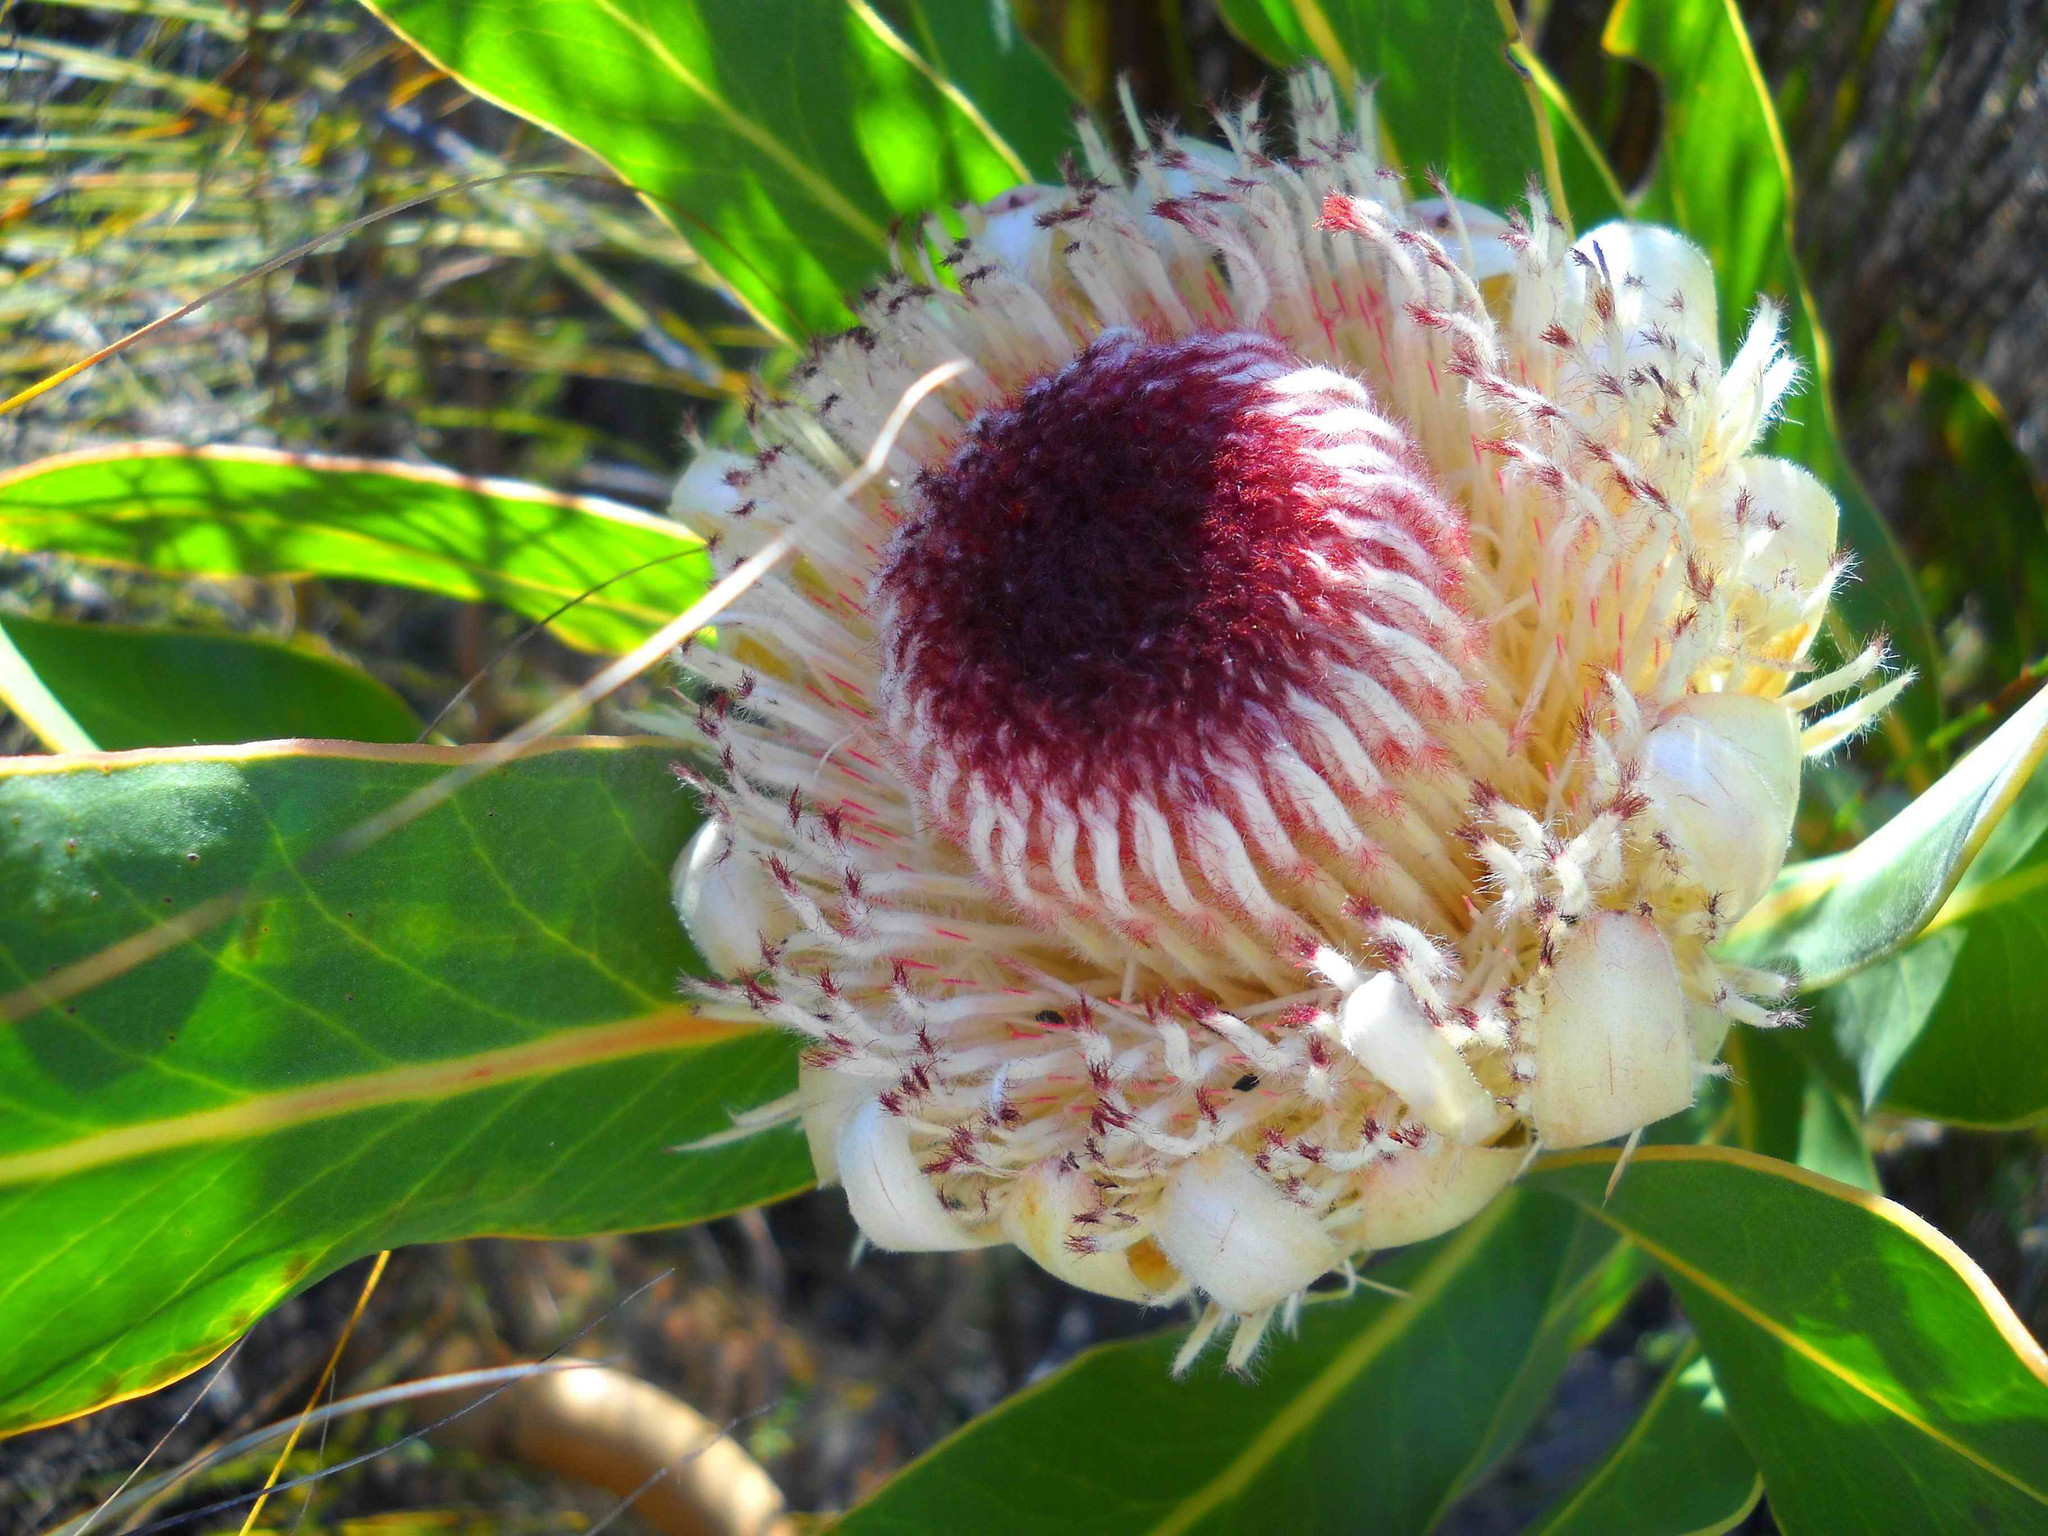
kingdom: Plantae
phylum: Tracheophyta
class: Magnoliopsida
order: Proteales
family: Proteaceae
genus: Protea
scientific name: Protea lorifolia
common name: Strap-leaved protea
